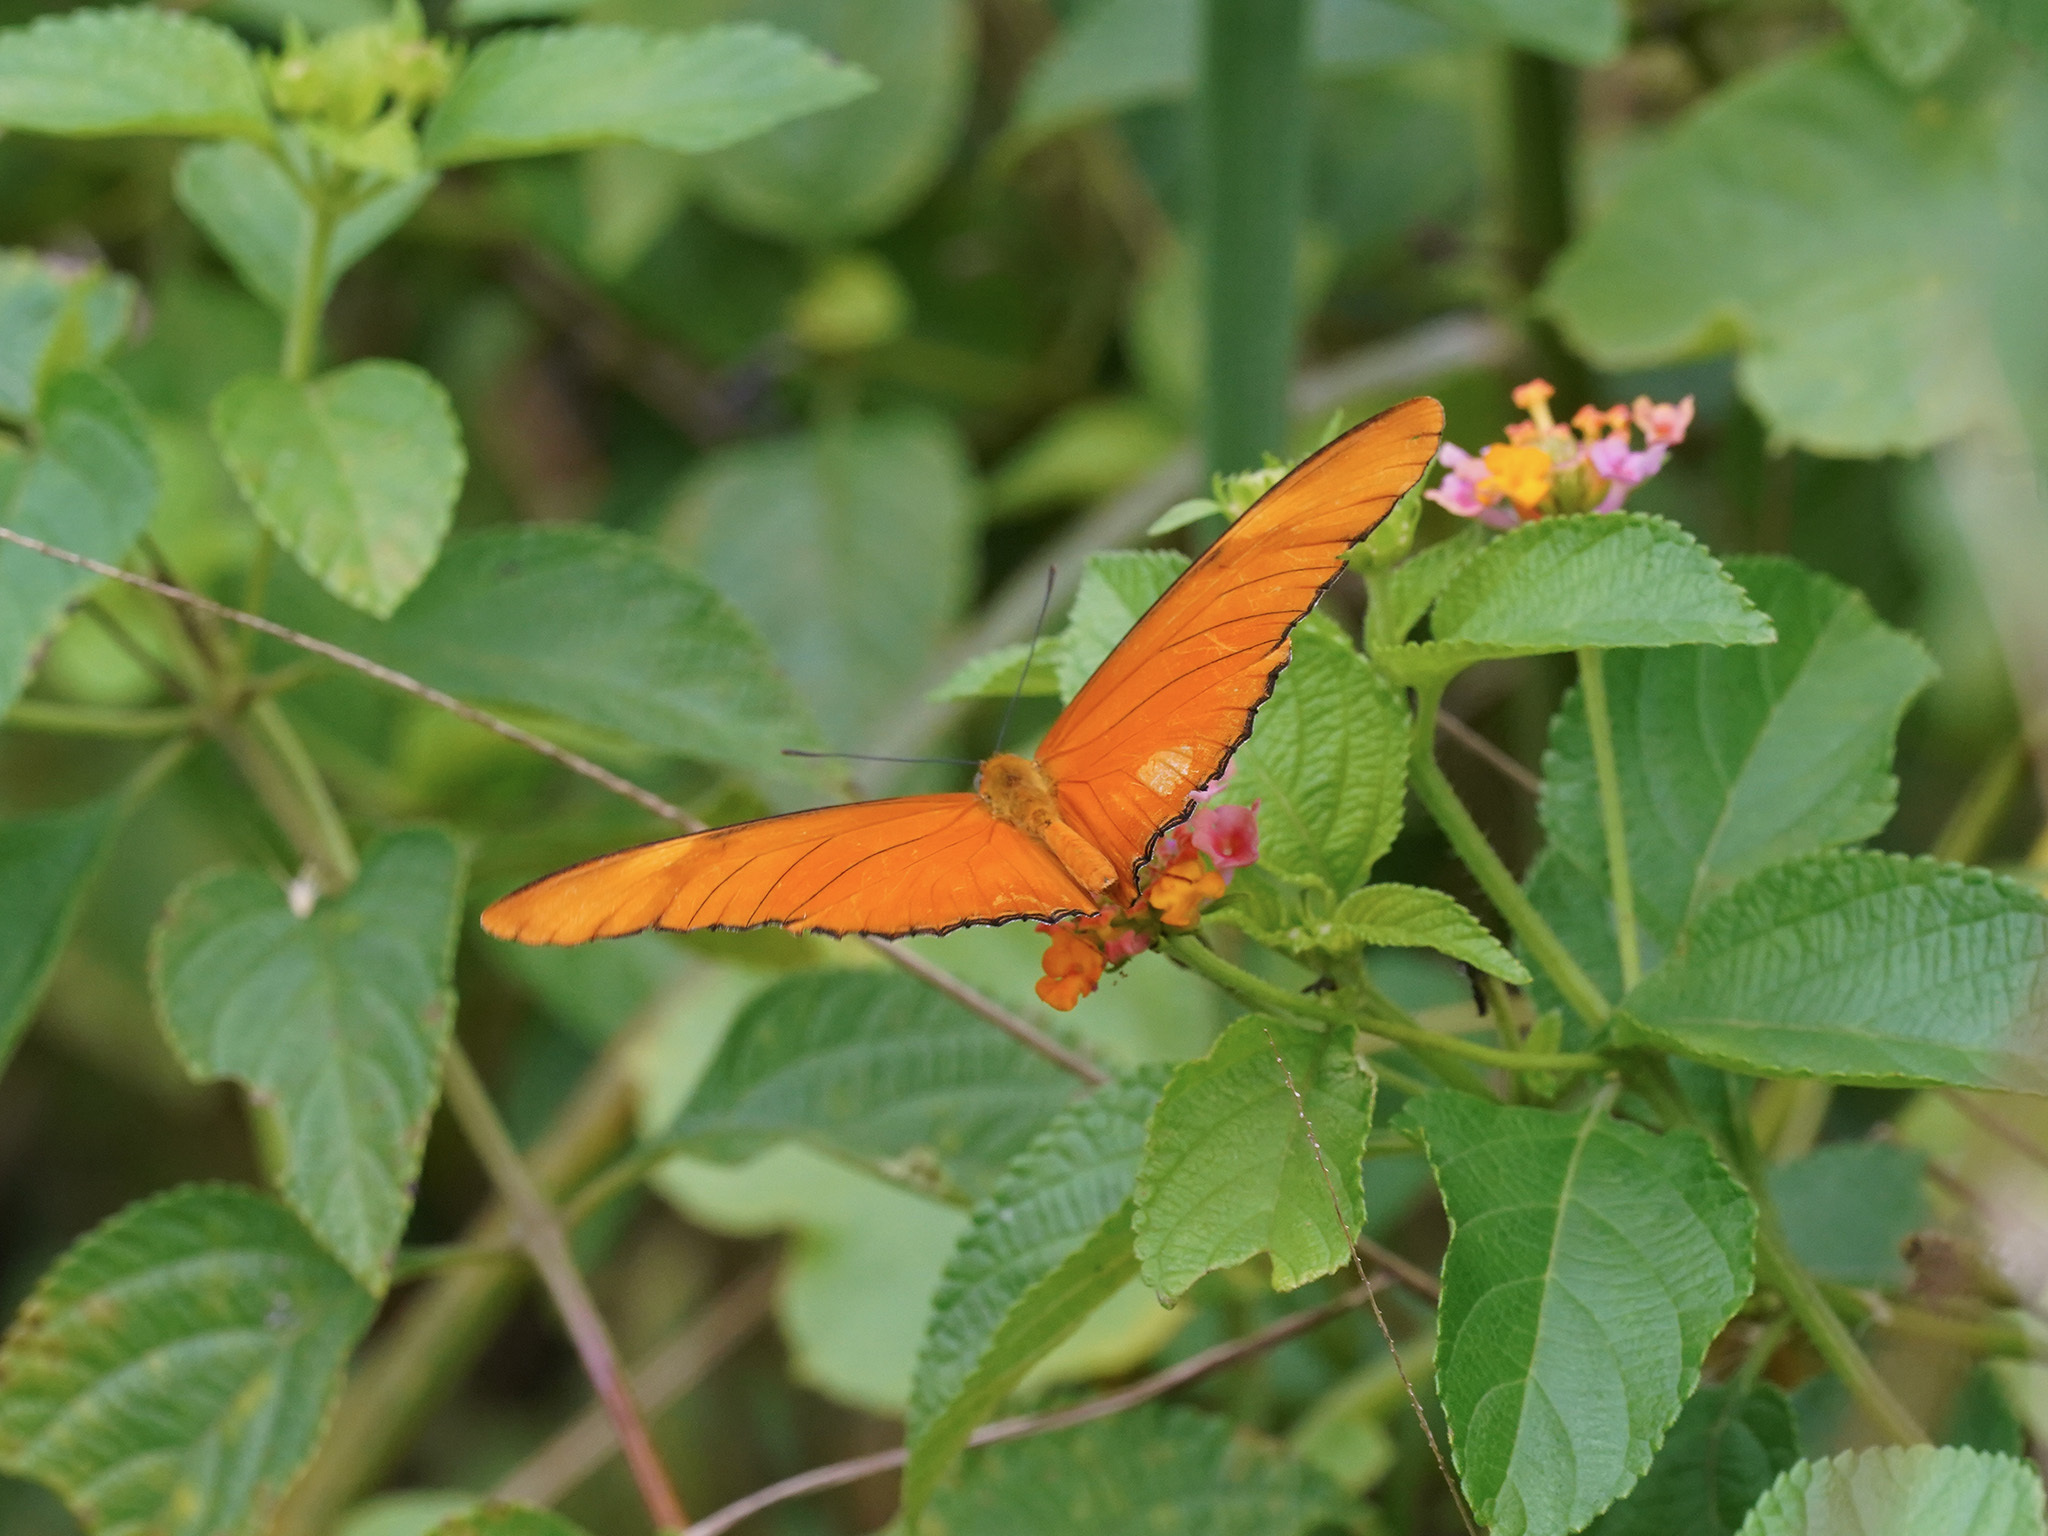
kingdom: Animalia
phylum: Arthropoda
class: Insecta
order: Lepidoptera
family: Nymphalidae
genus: Dryas
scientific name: Dryas iulia
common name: Flambeau
